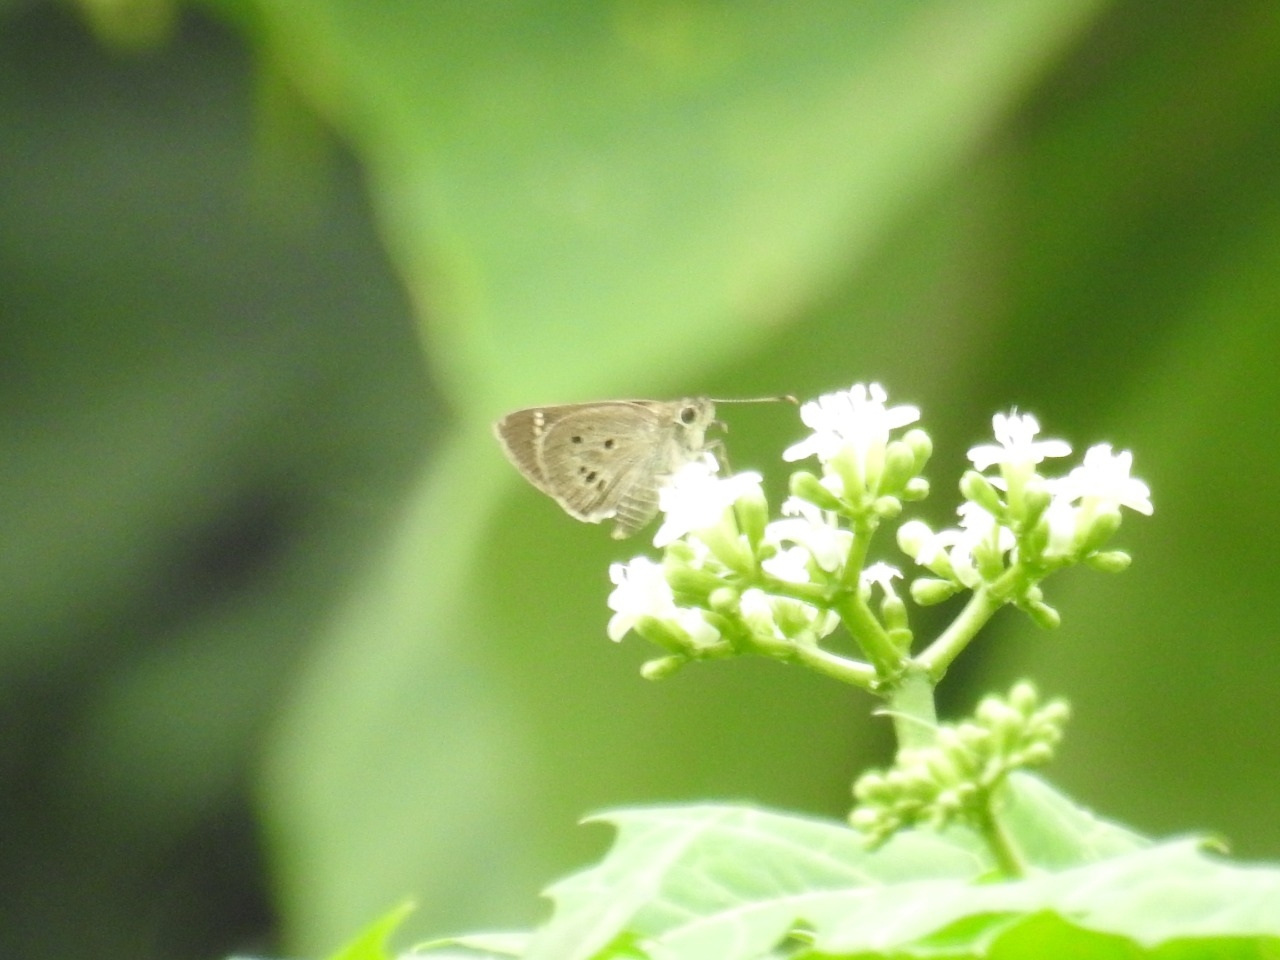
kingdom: Animalia
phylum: Arthropoda
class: Insecta
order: Lepidoptera
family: Hesperiidae
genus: Suastus
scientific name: Suastus gremius
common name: Indian palm bob
